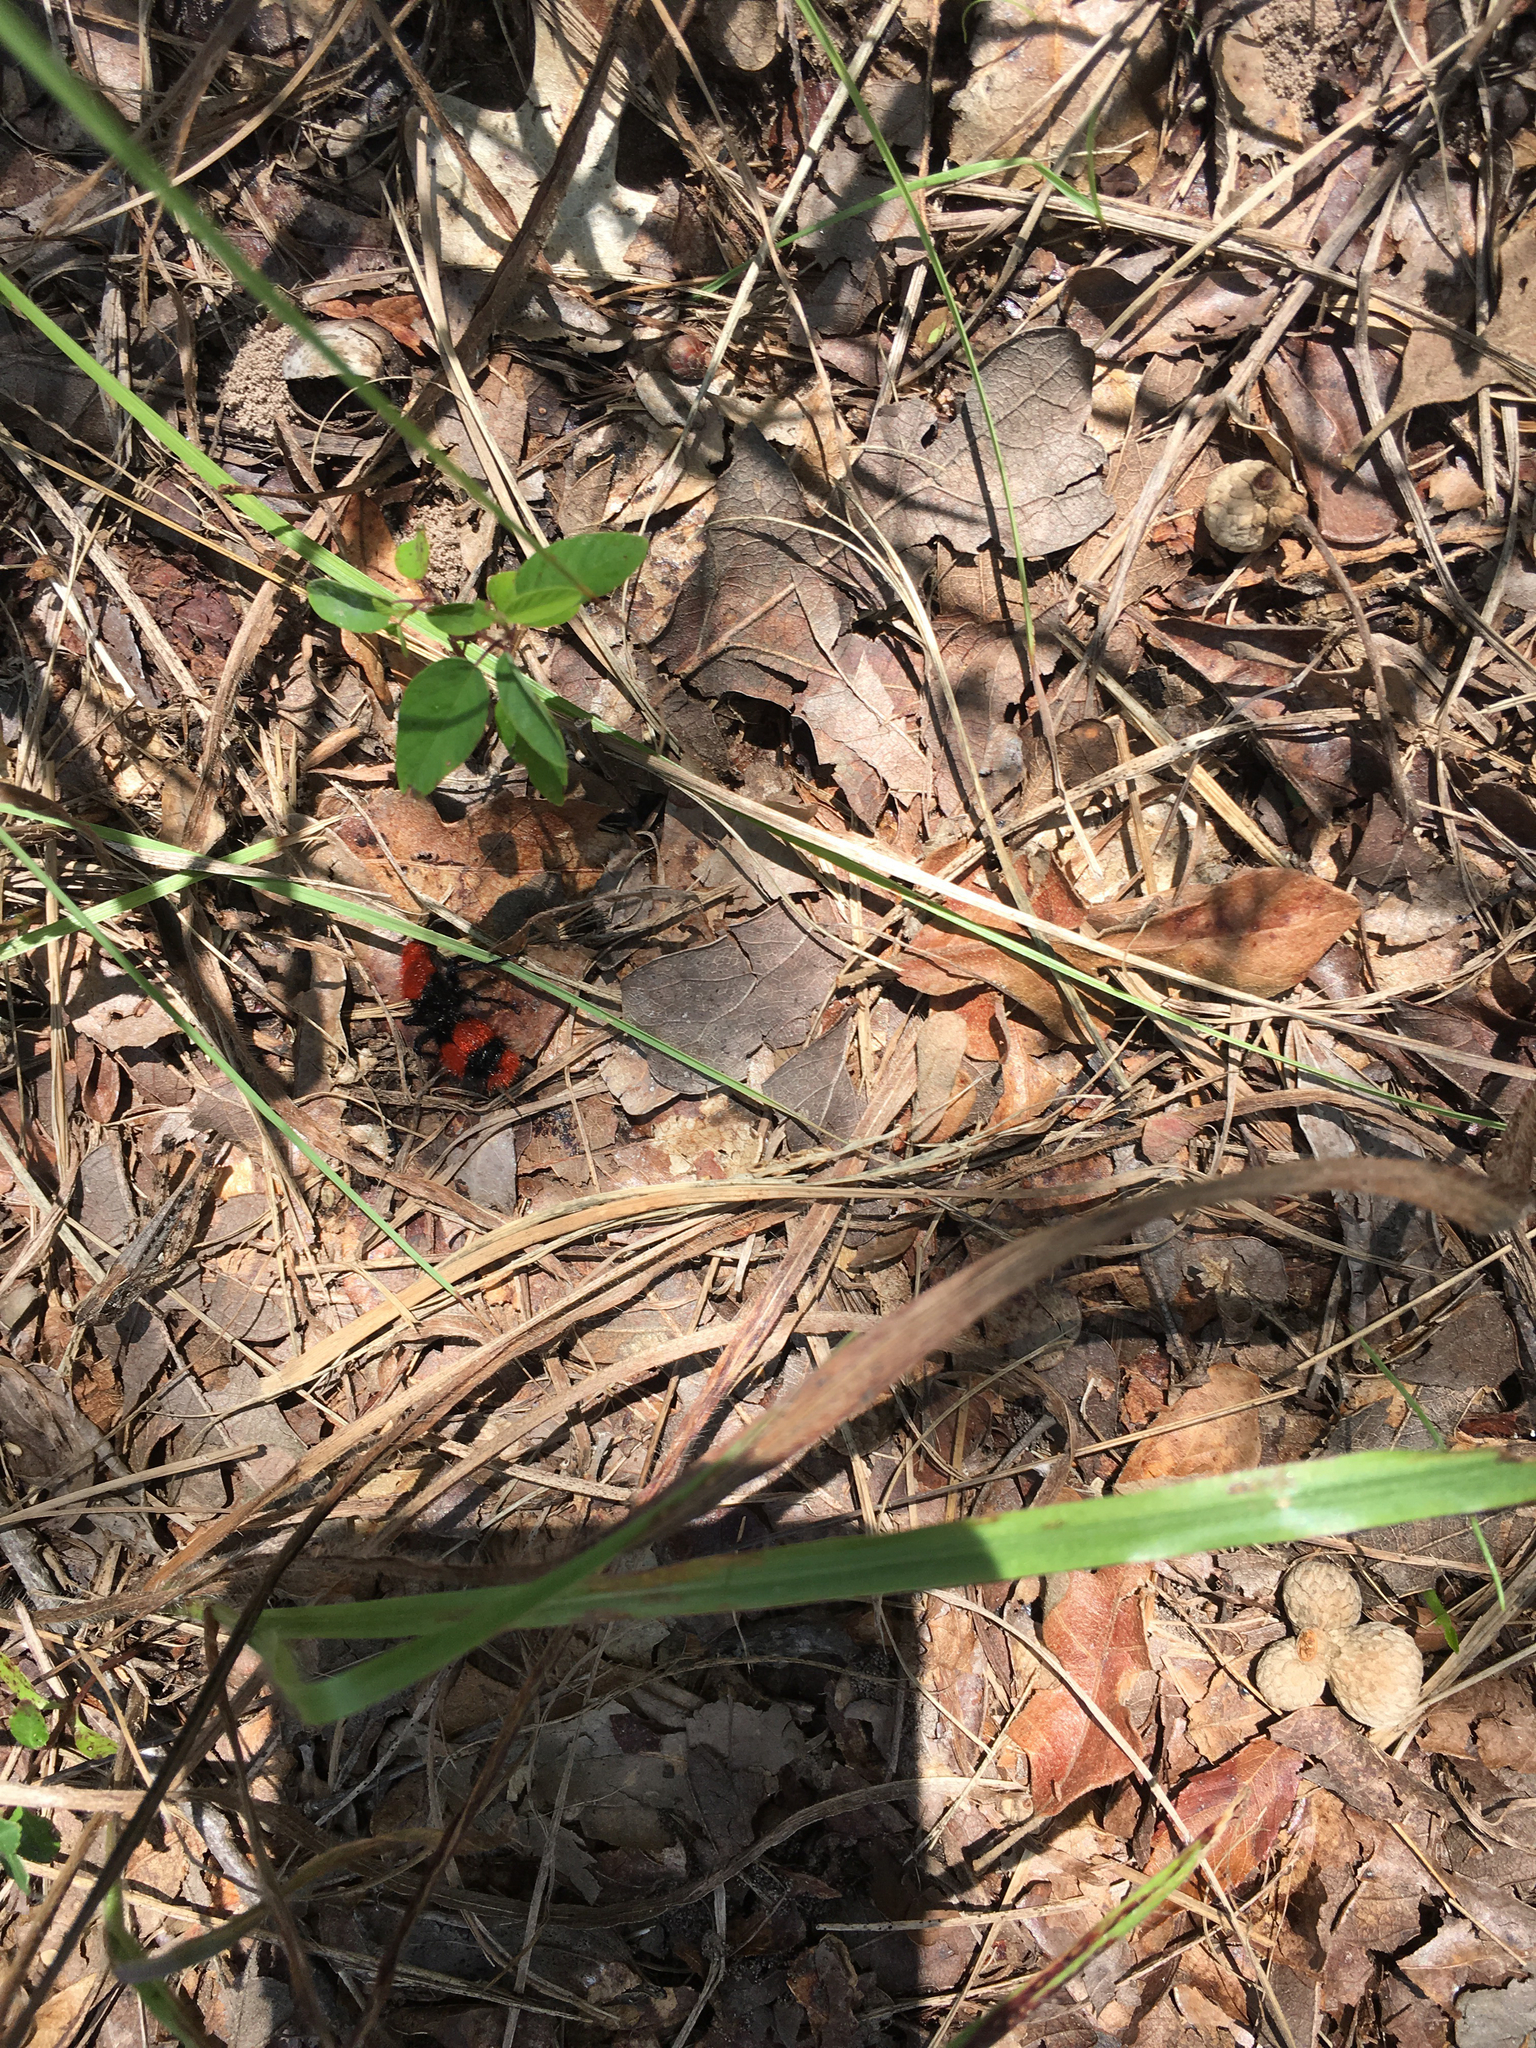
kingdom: Animalia
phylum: Arthropoda
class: Insecta
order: Hymenoptera
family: Mutillidae
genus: Dasymutilla
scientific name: Dasymutilla occidentalis
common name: Common eastern velvet ant
